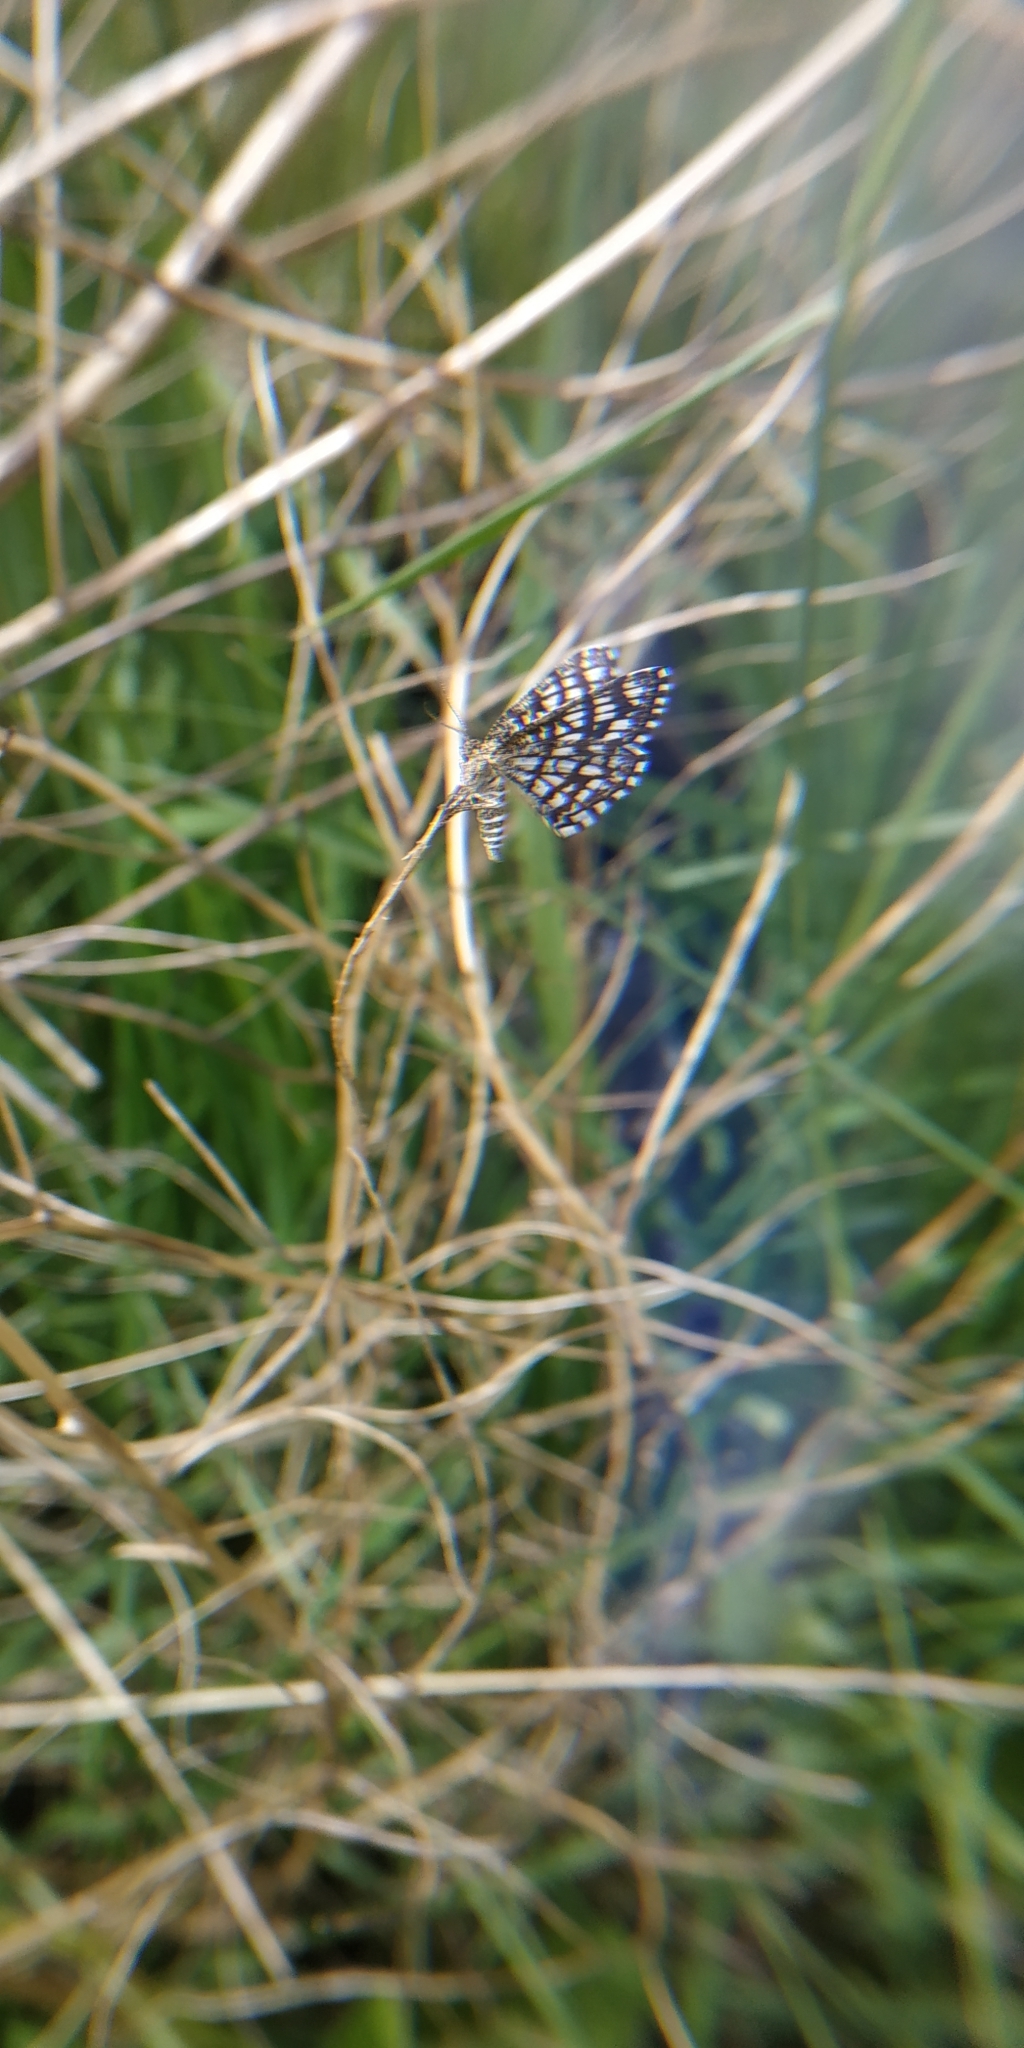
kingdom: Animalia
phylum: Arthropoda
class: Insecta
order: Lepidoptera
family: Geometridae
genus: Chiasmia
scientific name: Chiasmia clathrata
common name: Latticed heath
